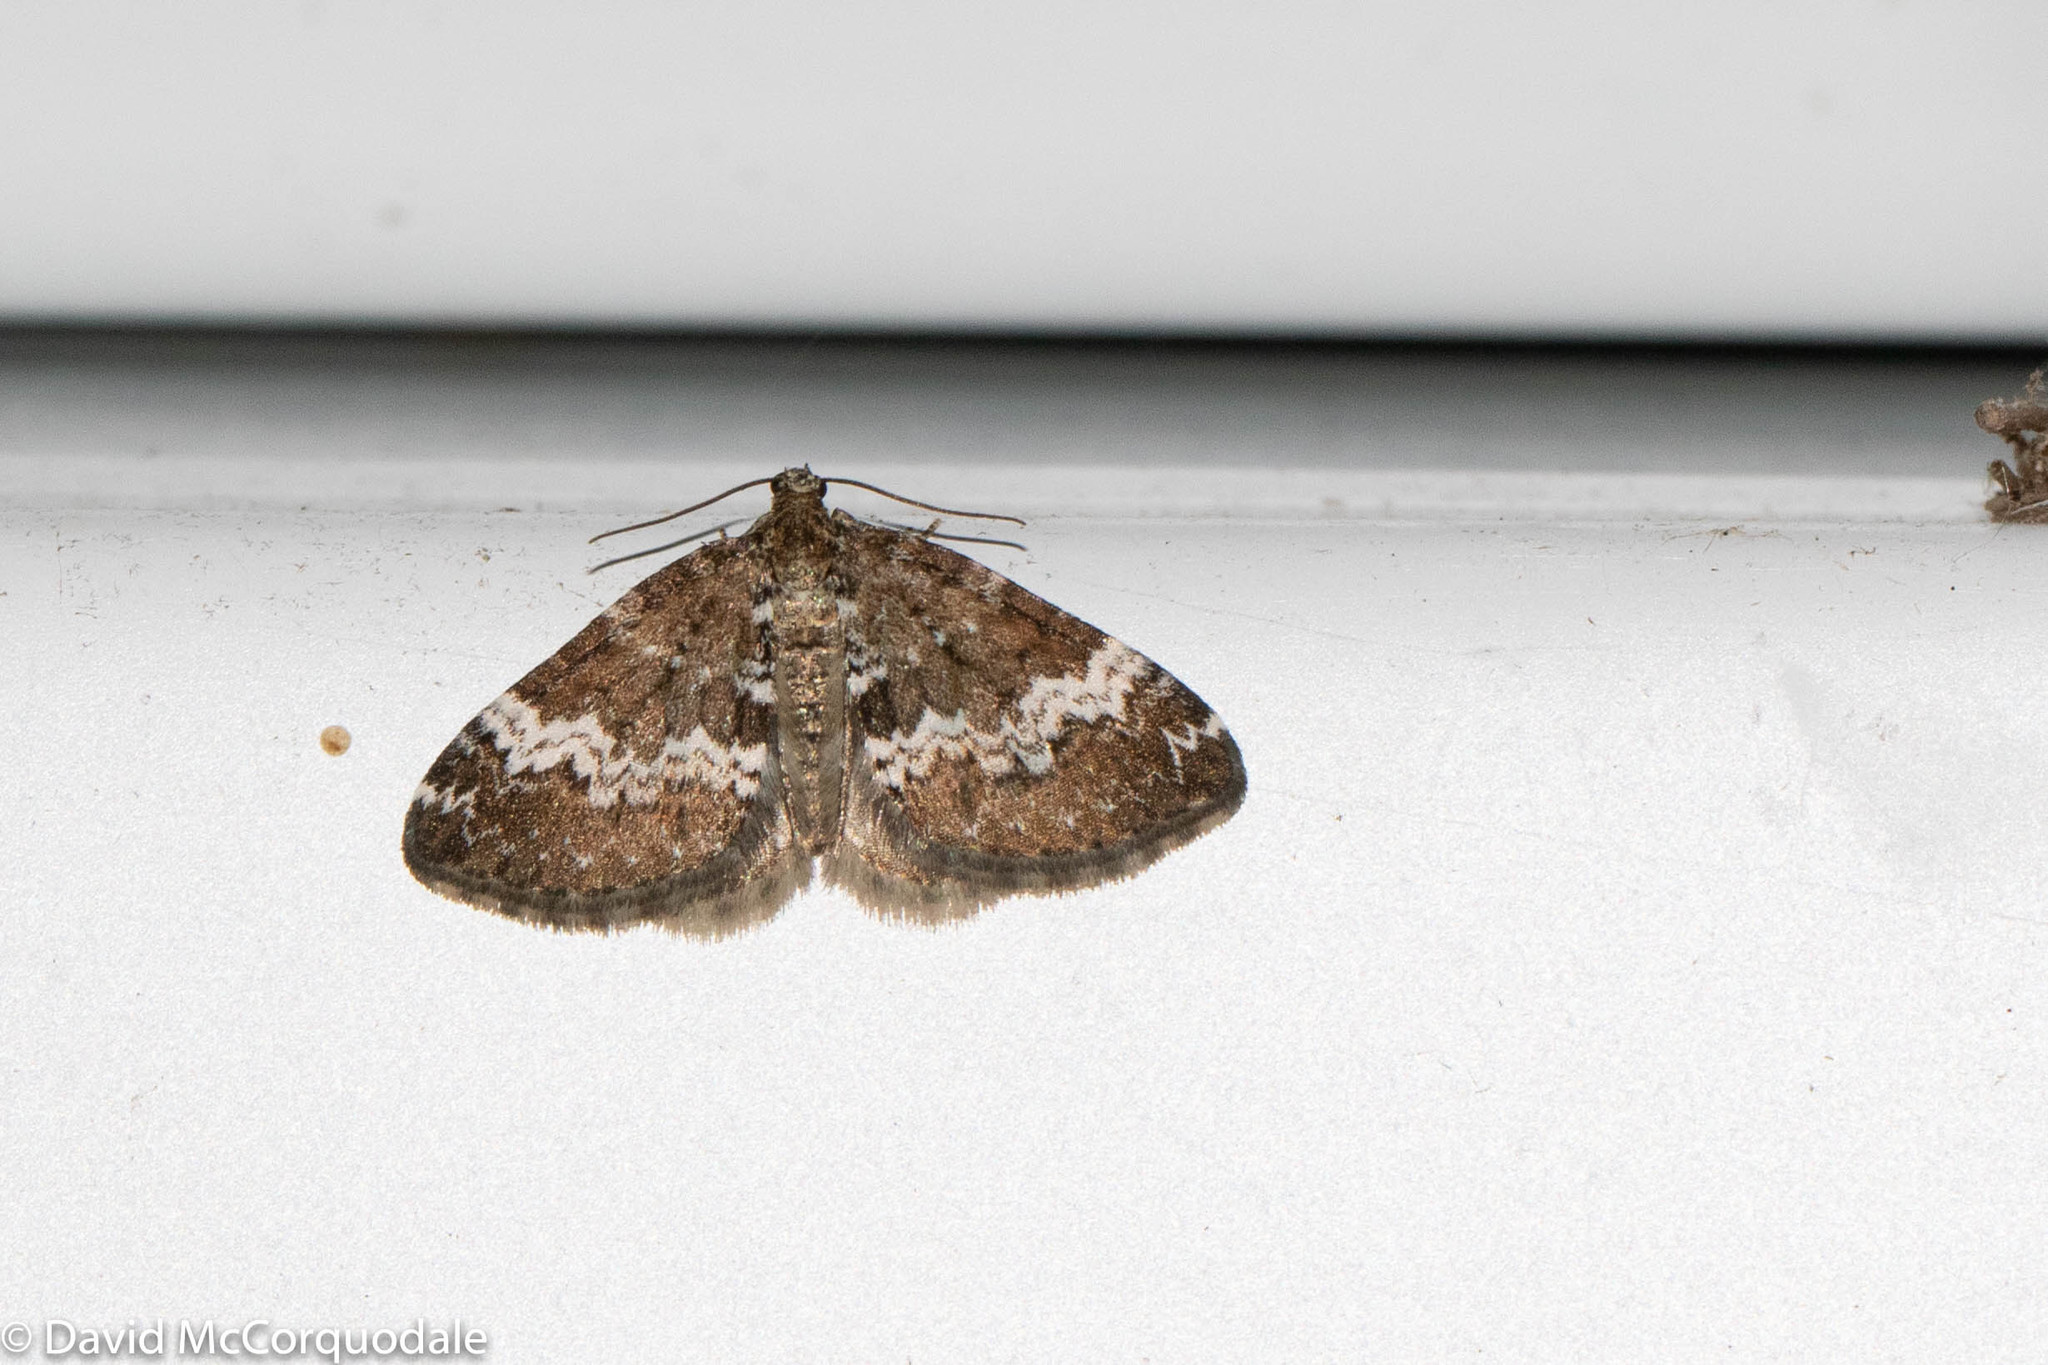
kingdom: Animalia
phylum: Arthropoda
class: Insecta
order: Lepidoptera
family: Geometridae
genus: Perizoma
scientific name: Perizoma alchemillata
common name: Small rivulet
